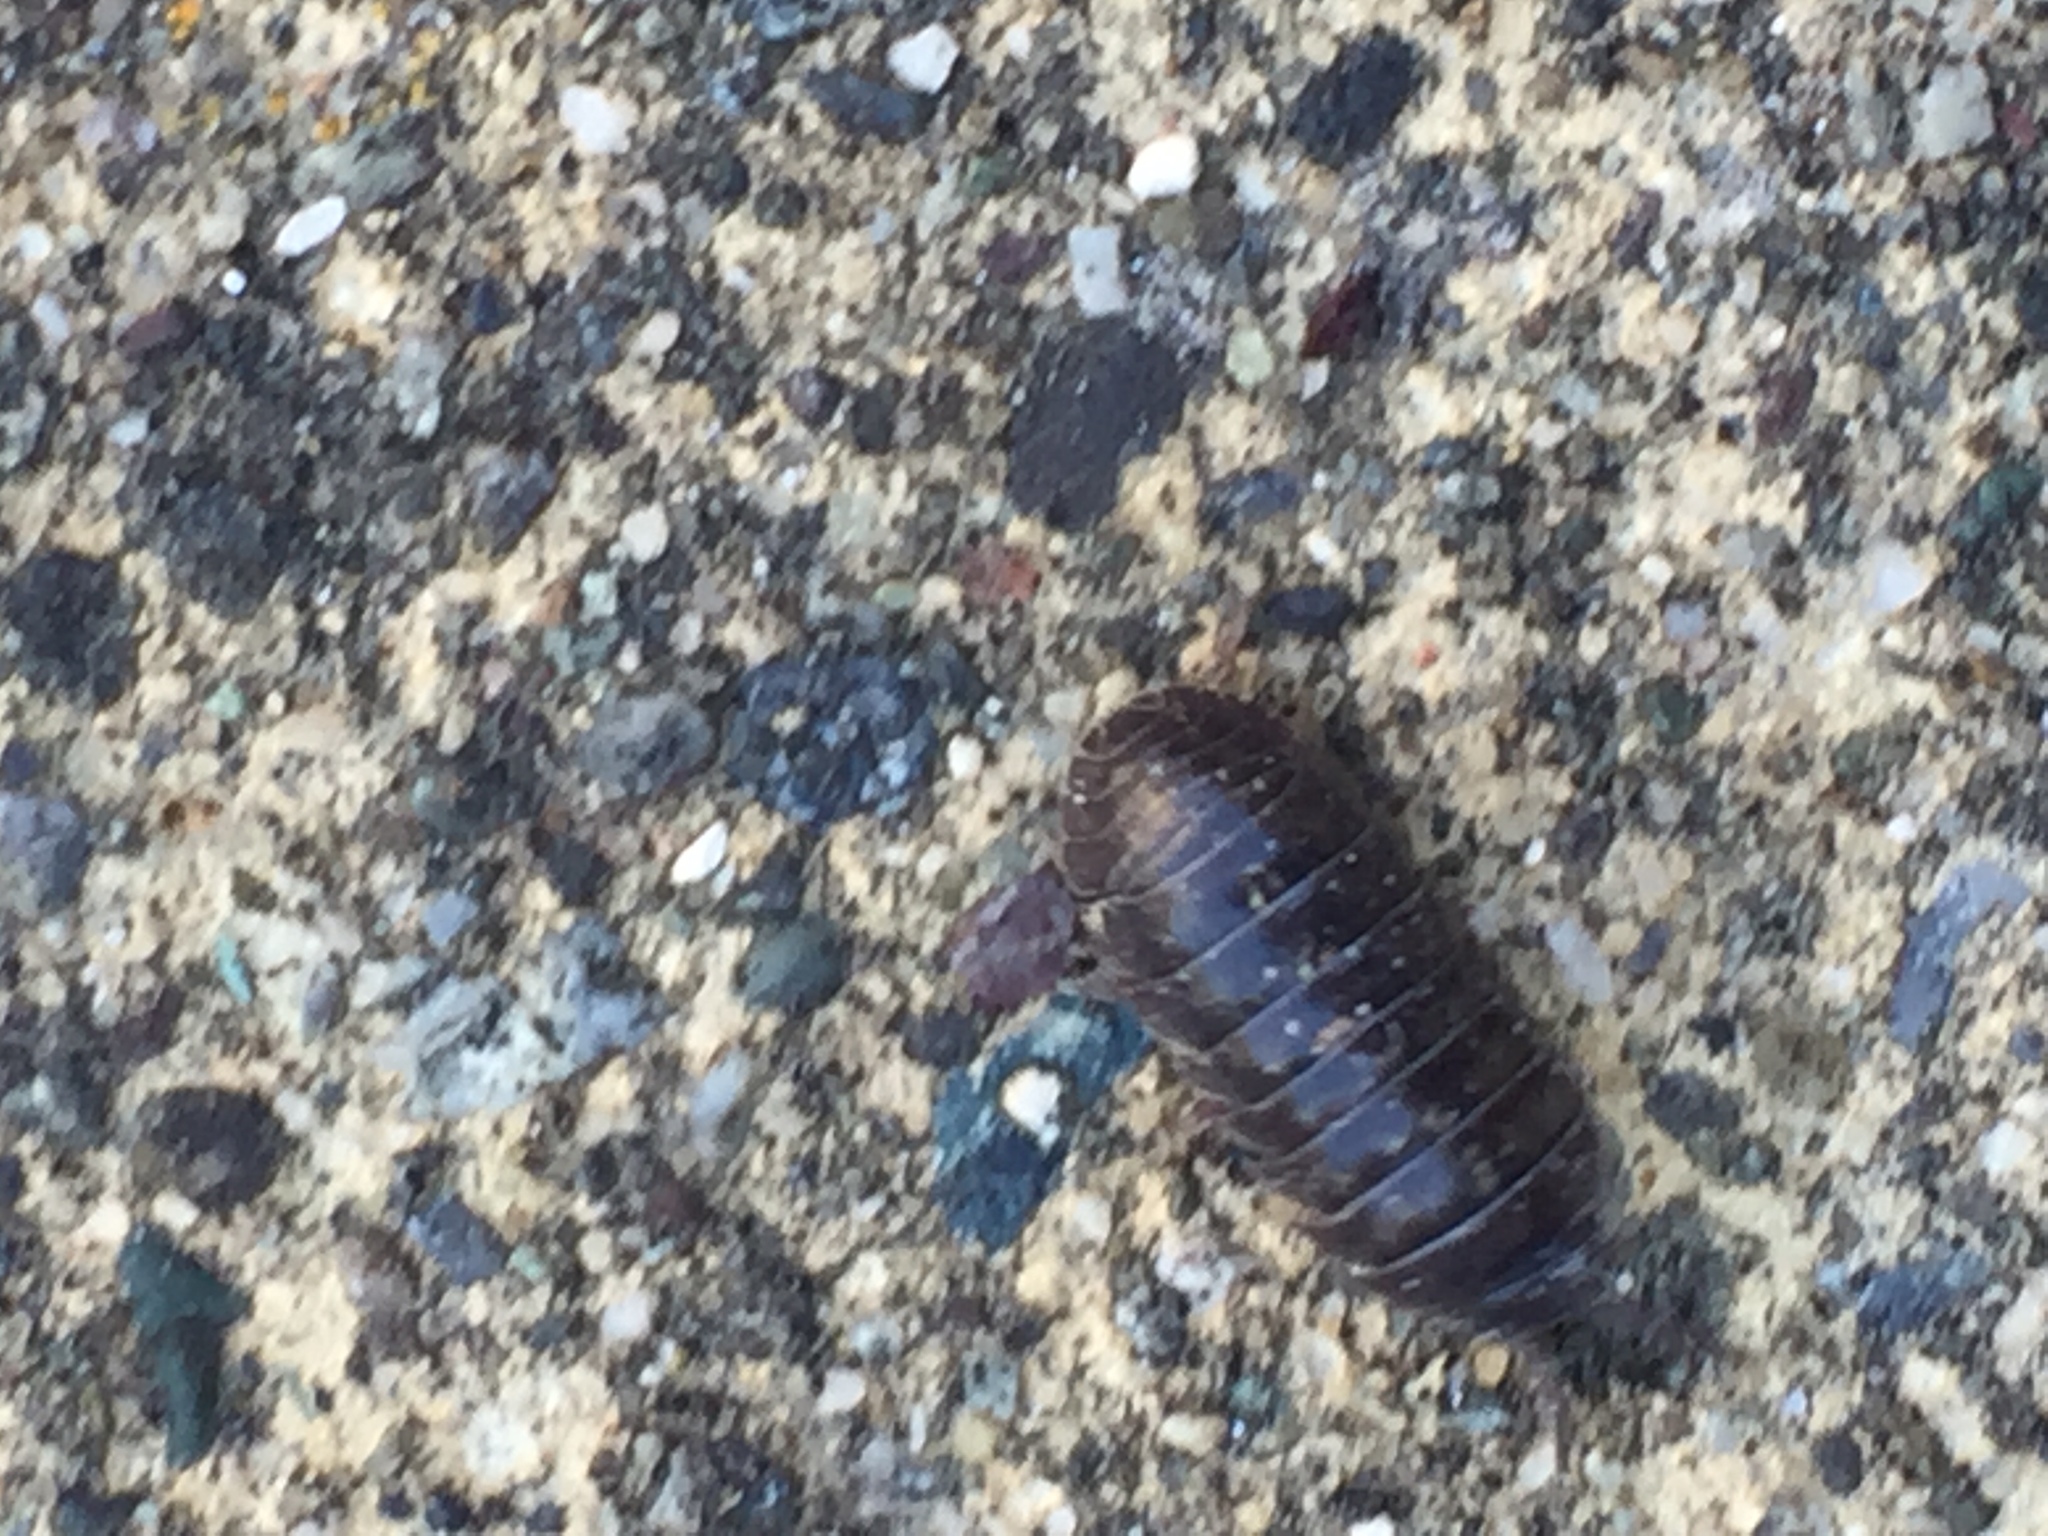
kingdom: Animalia
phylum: Arthropoda
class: Malacostraca
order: Isopoda
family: Armadillidiidae
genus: Armadillidium
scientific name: Armadillidium vulgare
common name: Common pill woodlouse
